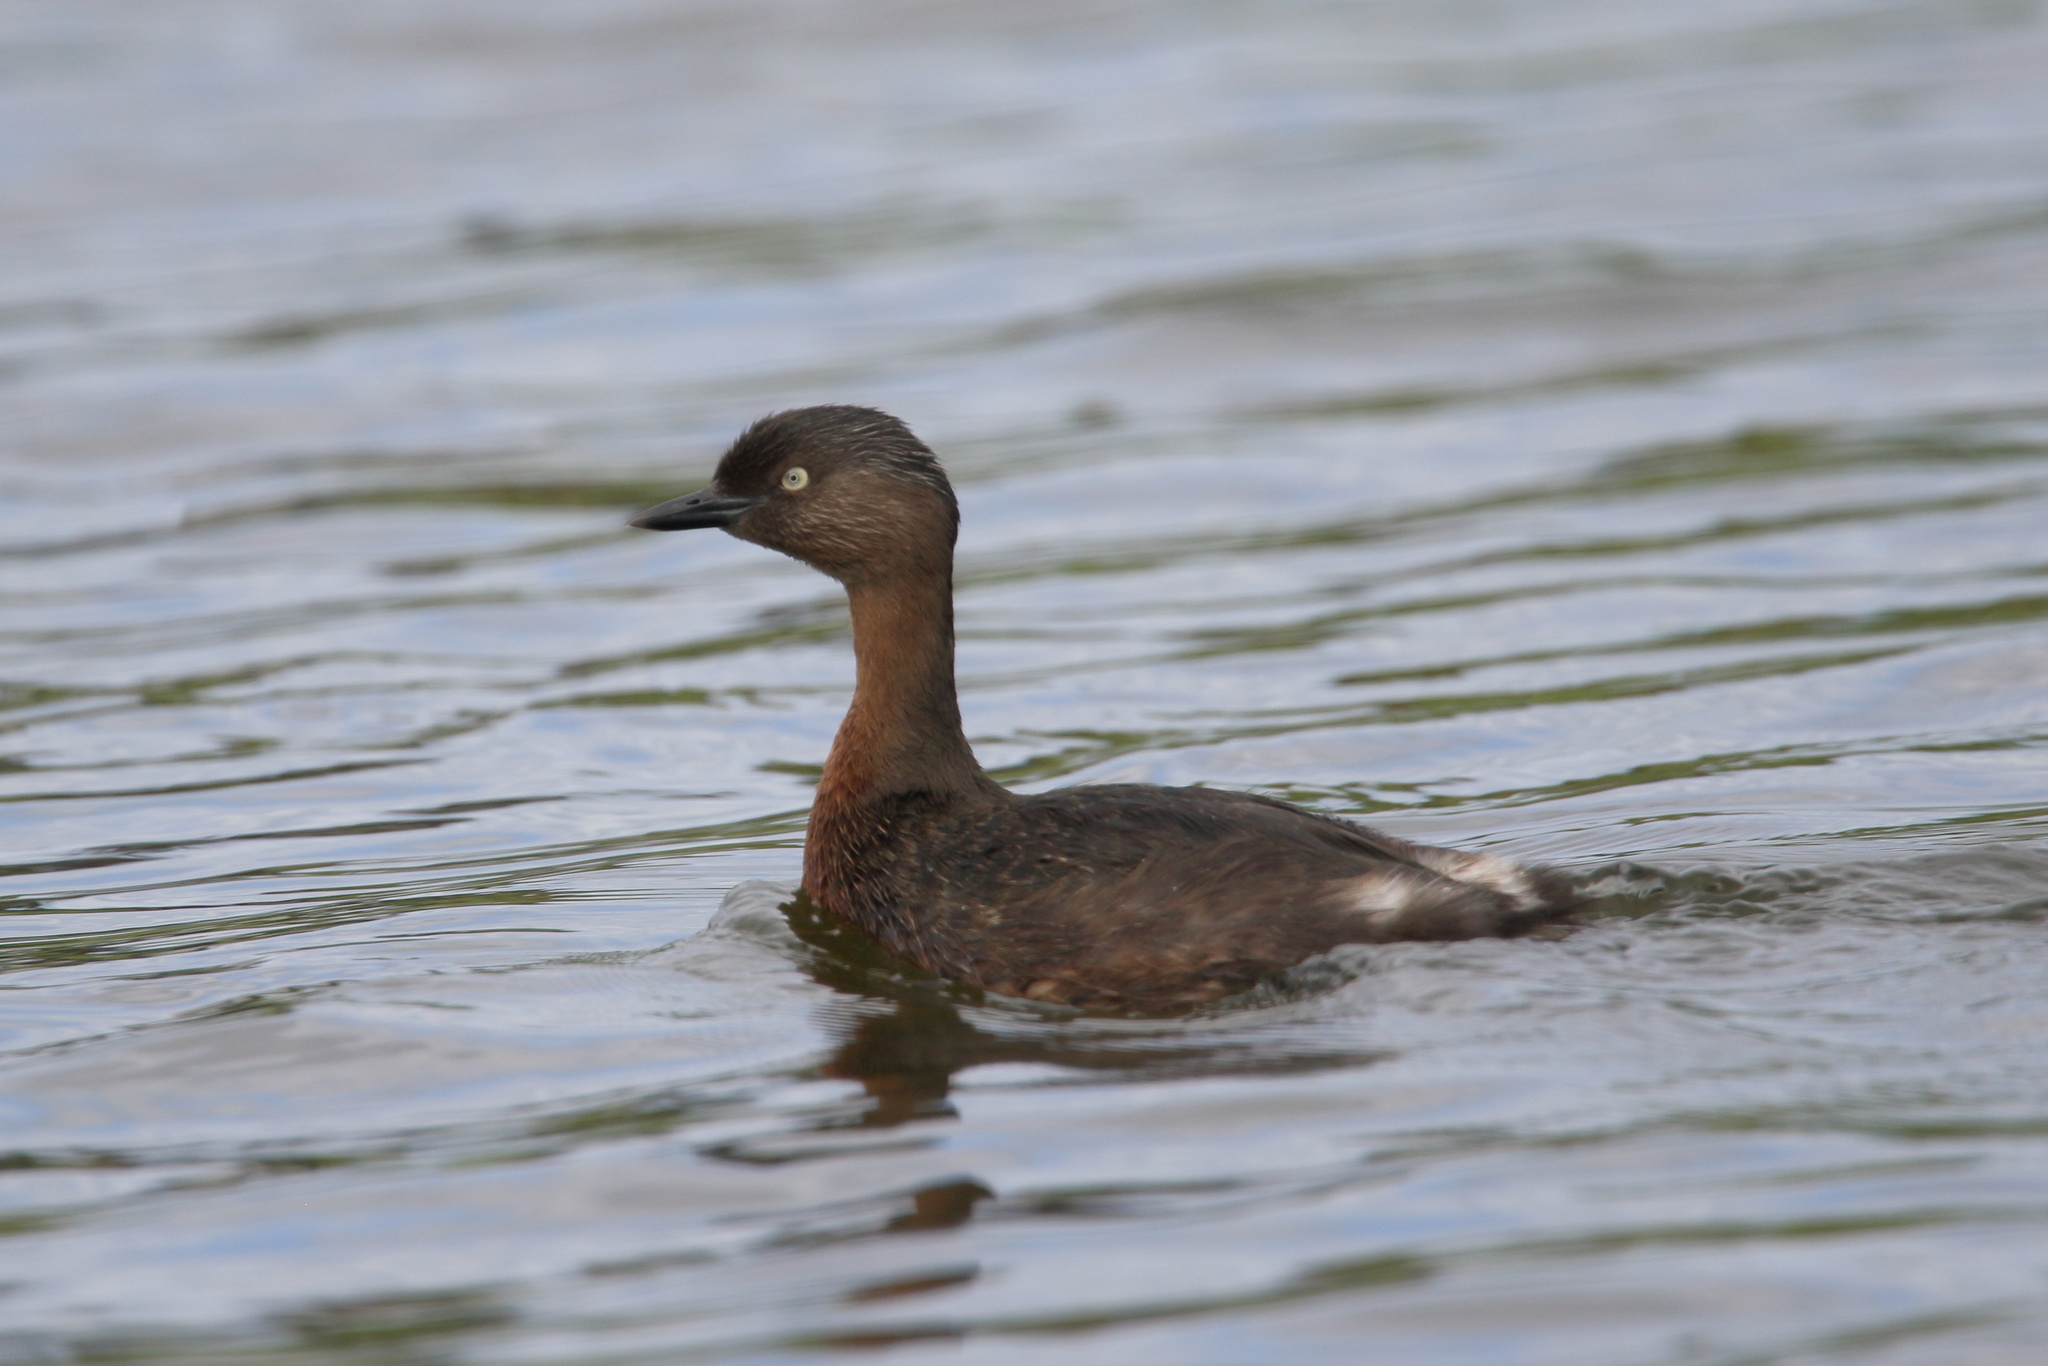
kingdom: Animalia
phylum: Chordata
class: Aves
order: Podicipediformes
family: Podicipedidae
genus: Poliocephalus
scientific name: Poliocephalus rufopectus
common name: New zealand grebe
